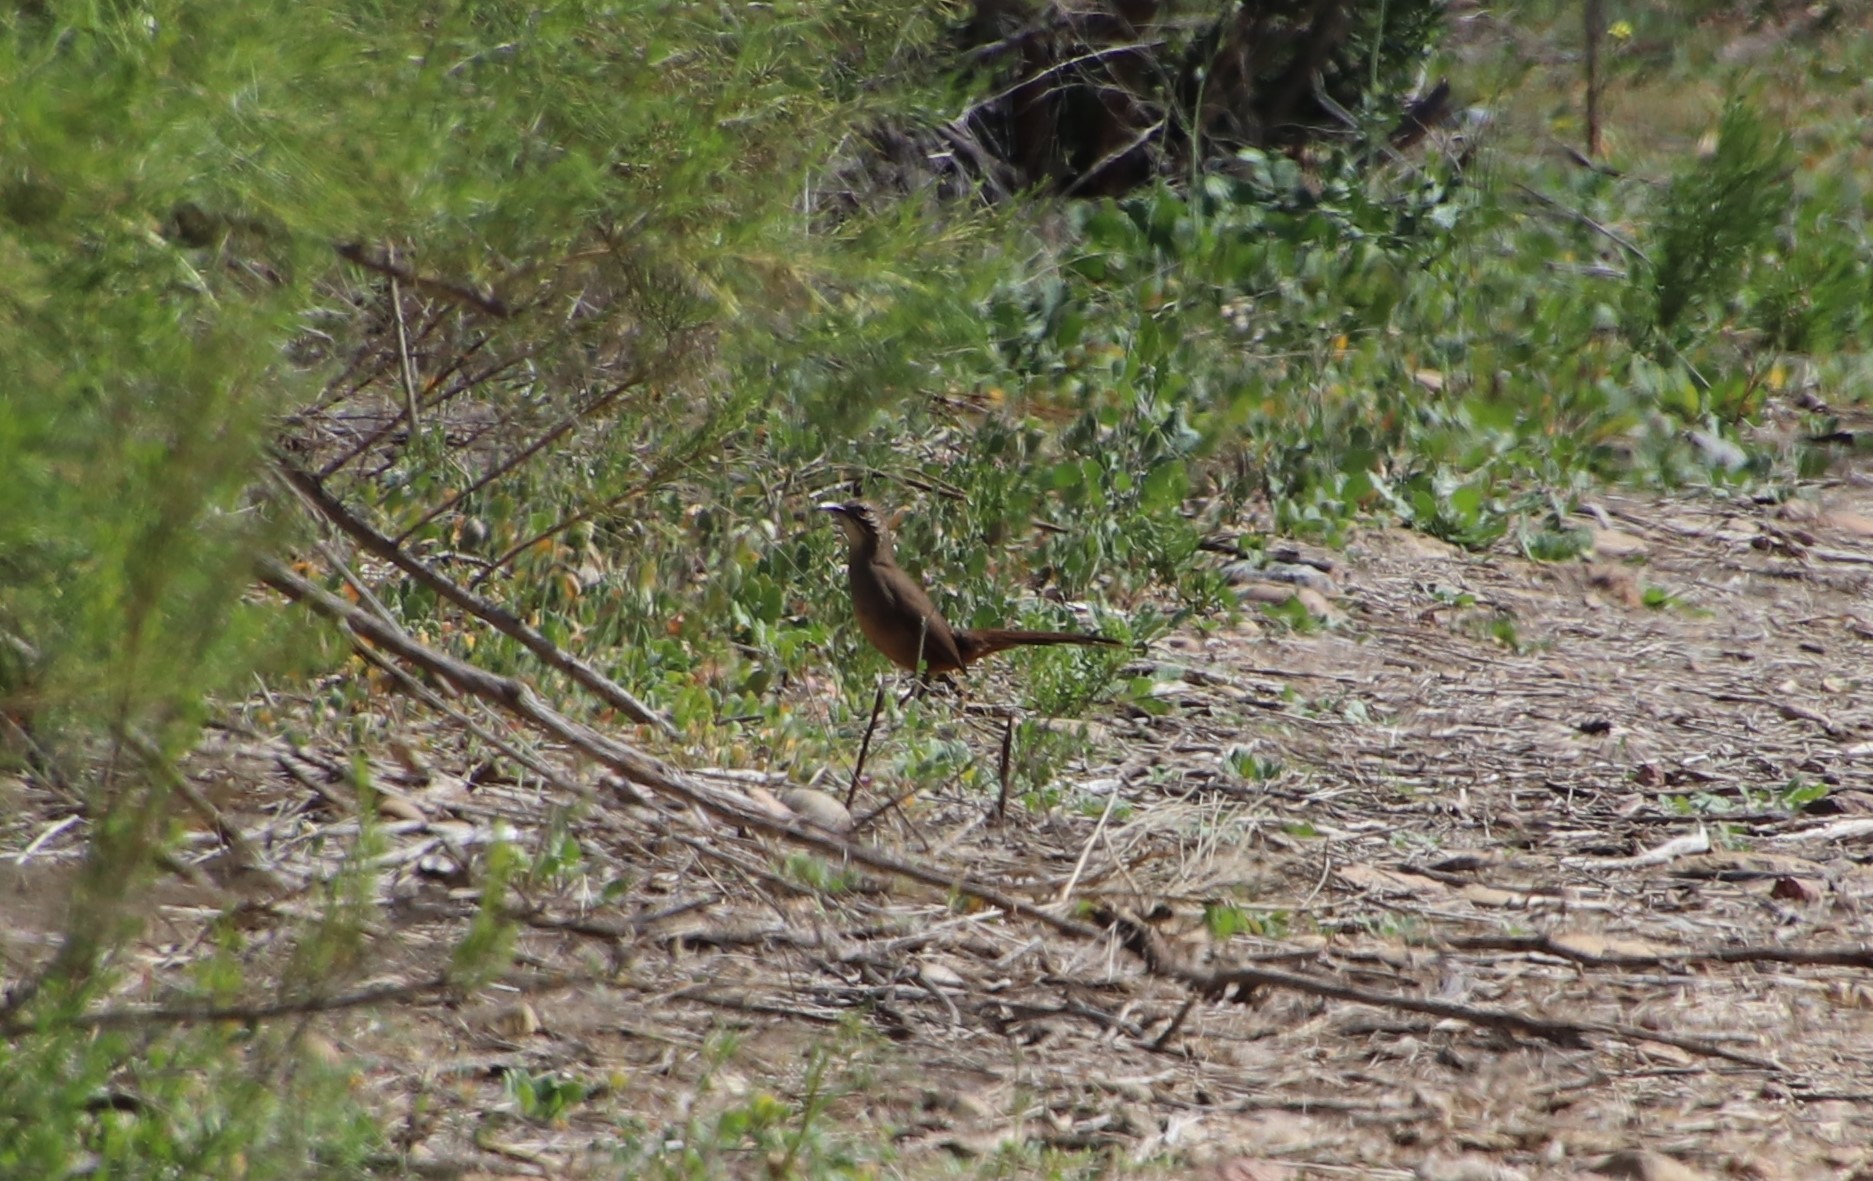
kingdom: Animalia
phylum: Chordata
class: Aves
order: Passeriformes
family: Mimidae
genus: Toxostoma
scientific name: Toxostoma redivivum
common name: California thrasher
